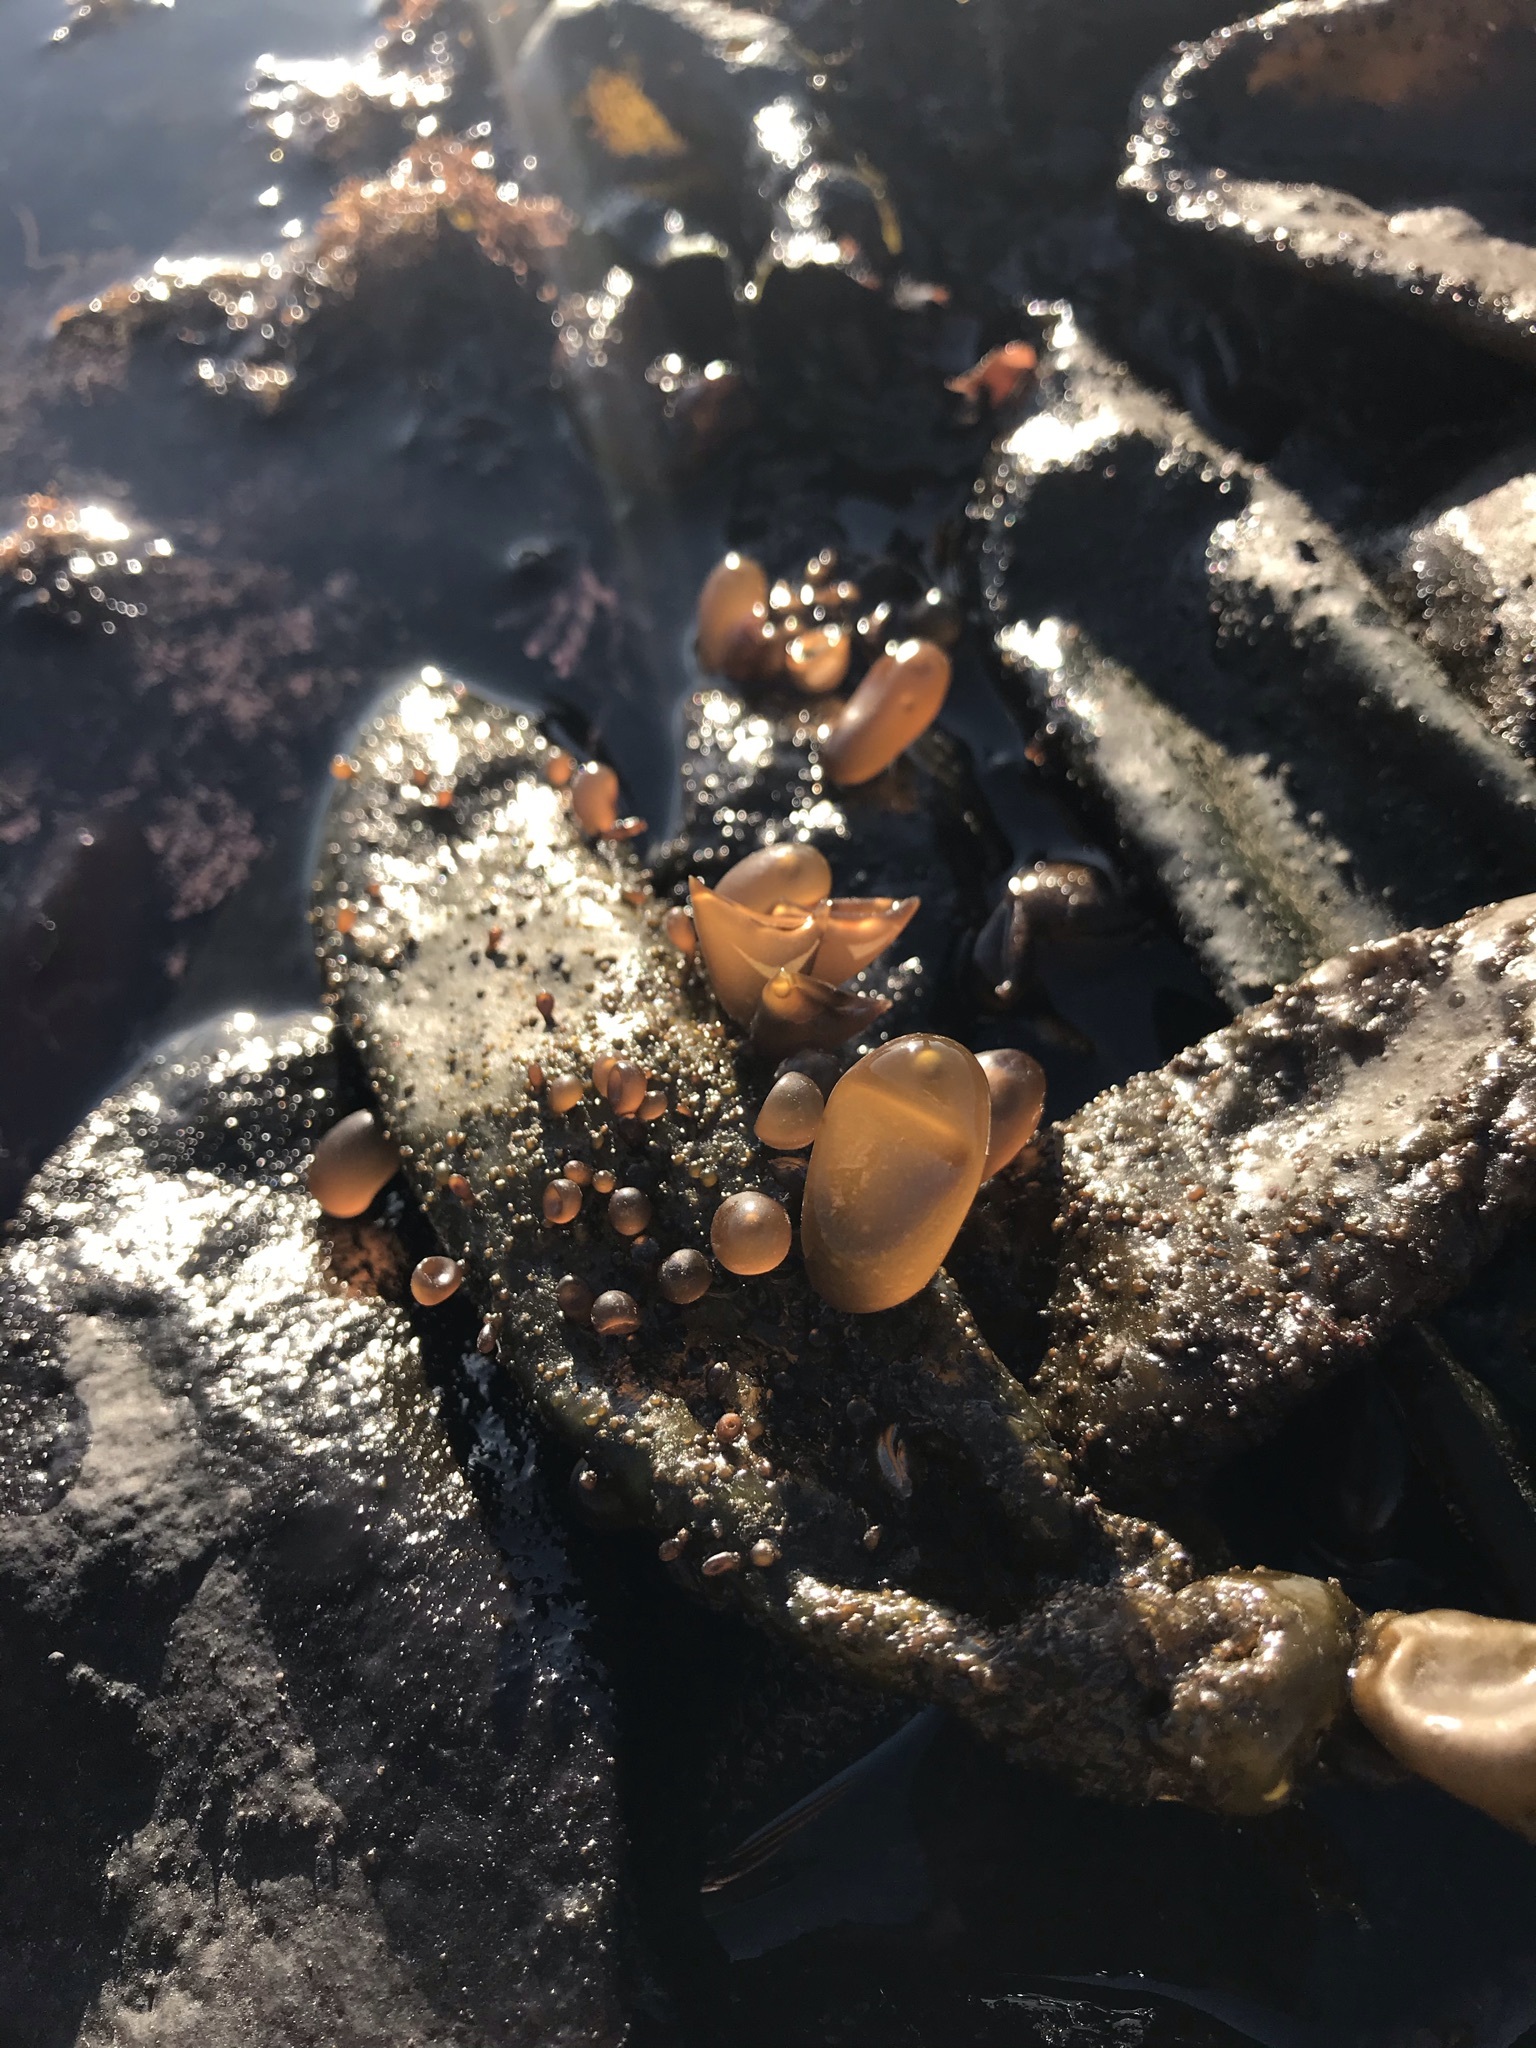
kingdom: Plantae
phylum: Rhodophyta
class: Florideophyceae
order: Palmariales
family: Palmariaceae
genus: Halosaccion
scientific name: Halosaccion glandiforme
